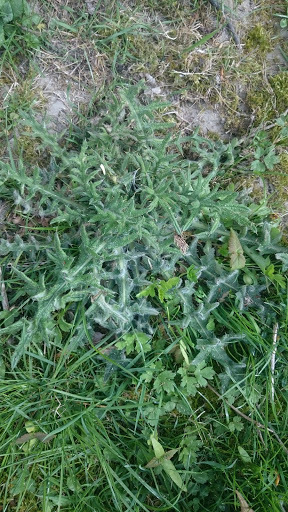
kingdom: Plantae
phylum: Tracheophyta
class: Magnoliopsida
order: Asterales
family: Asteraceae
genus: Cirsium
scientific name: Cirsium vulgare
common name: Bull thistle
